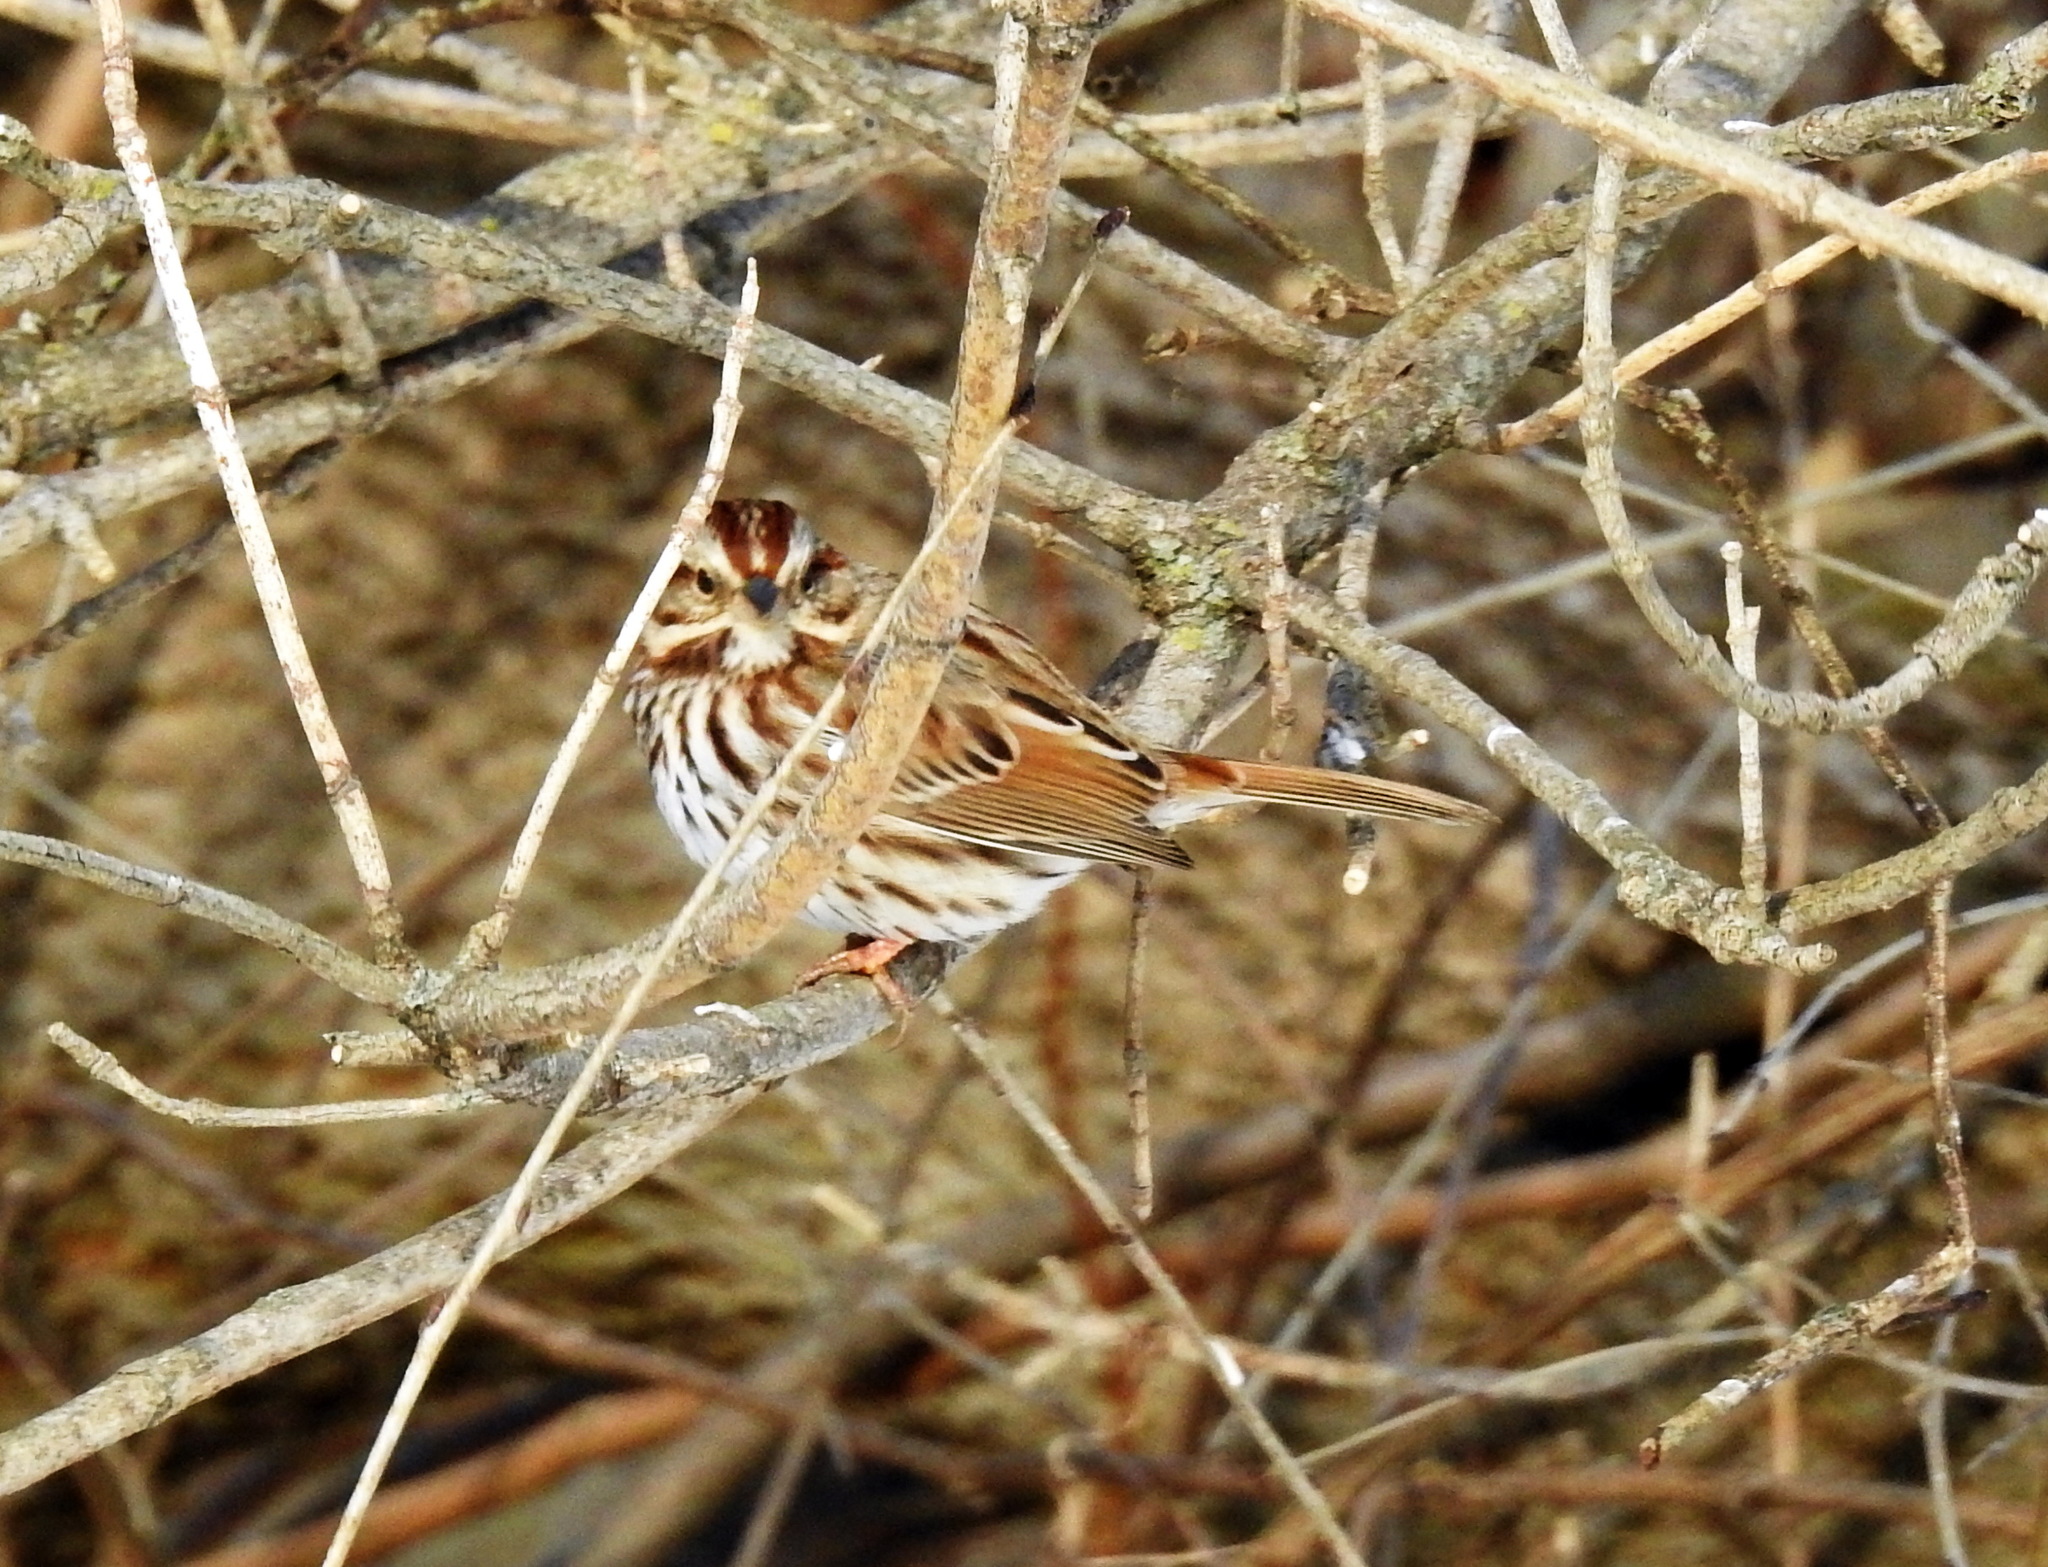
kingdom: Animalia
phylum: Chordata
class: Aves
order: Passeriformes
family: Passerellidae
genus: Melospiza
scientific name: Melospiza melodia
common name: Song sparrow
